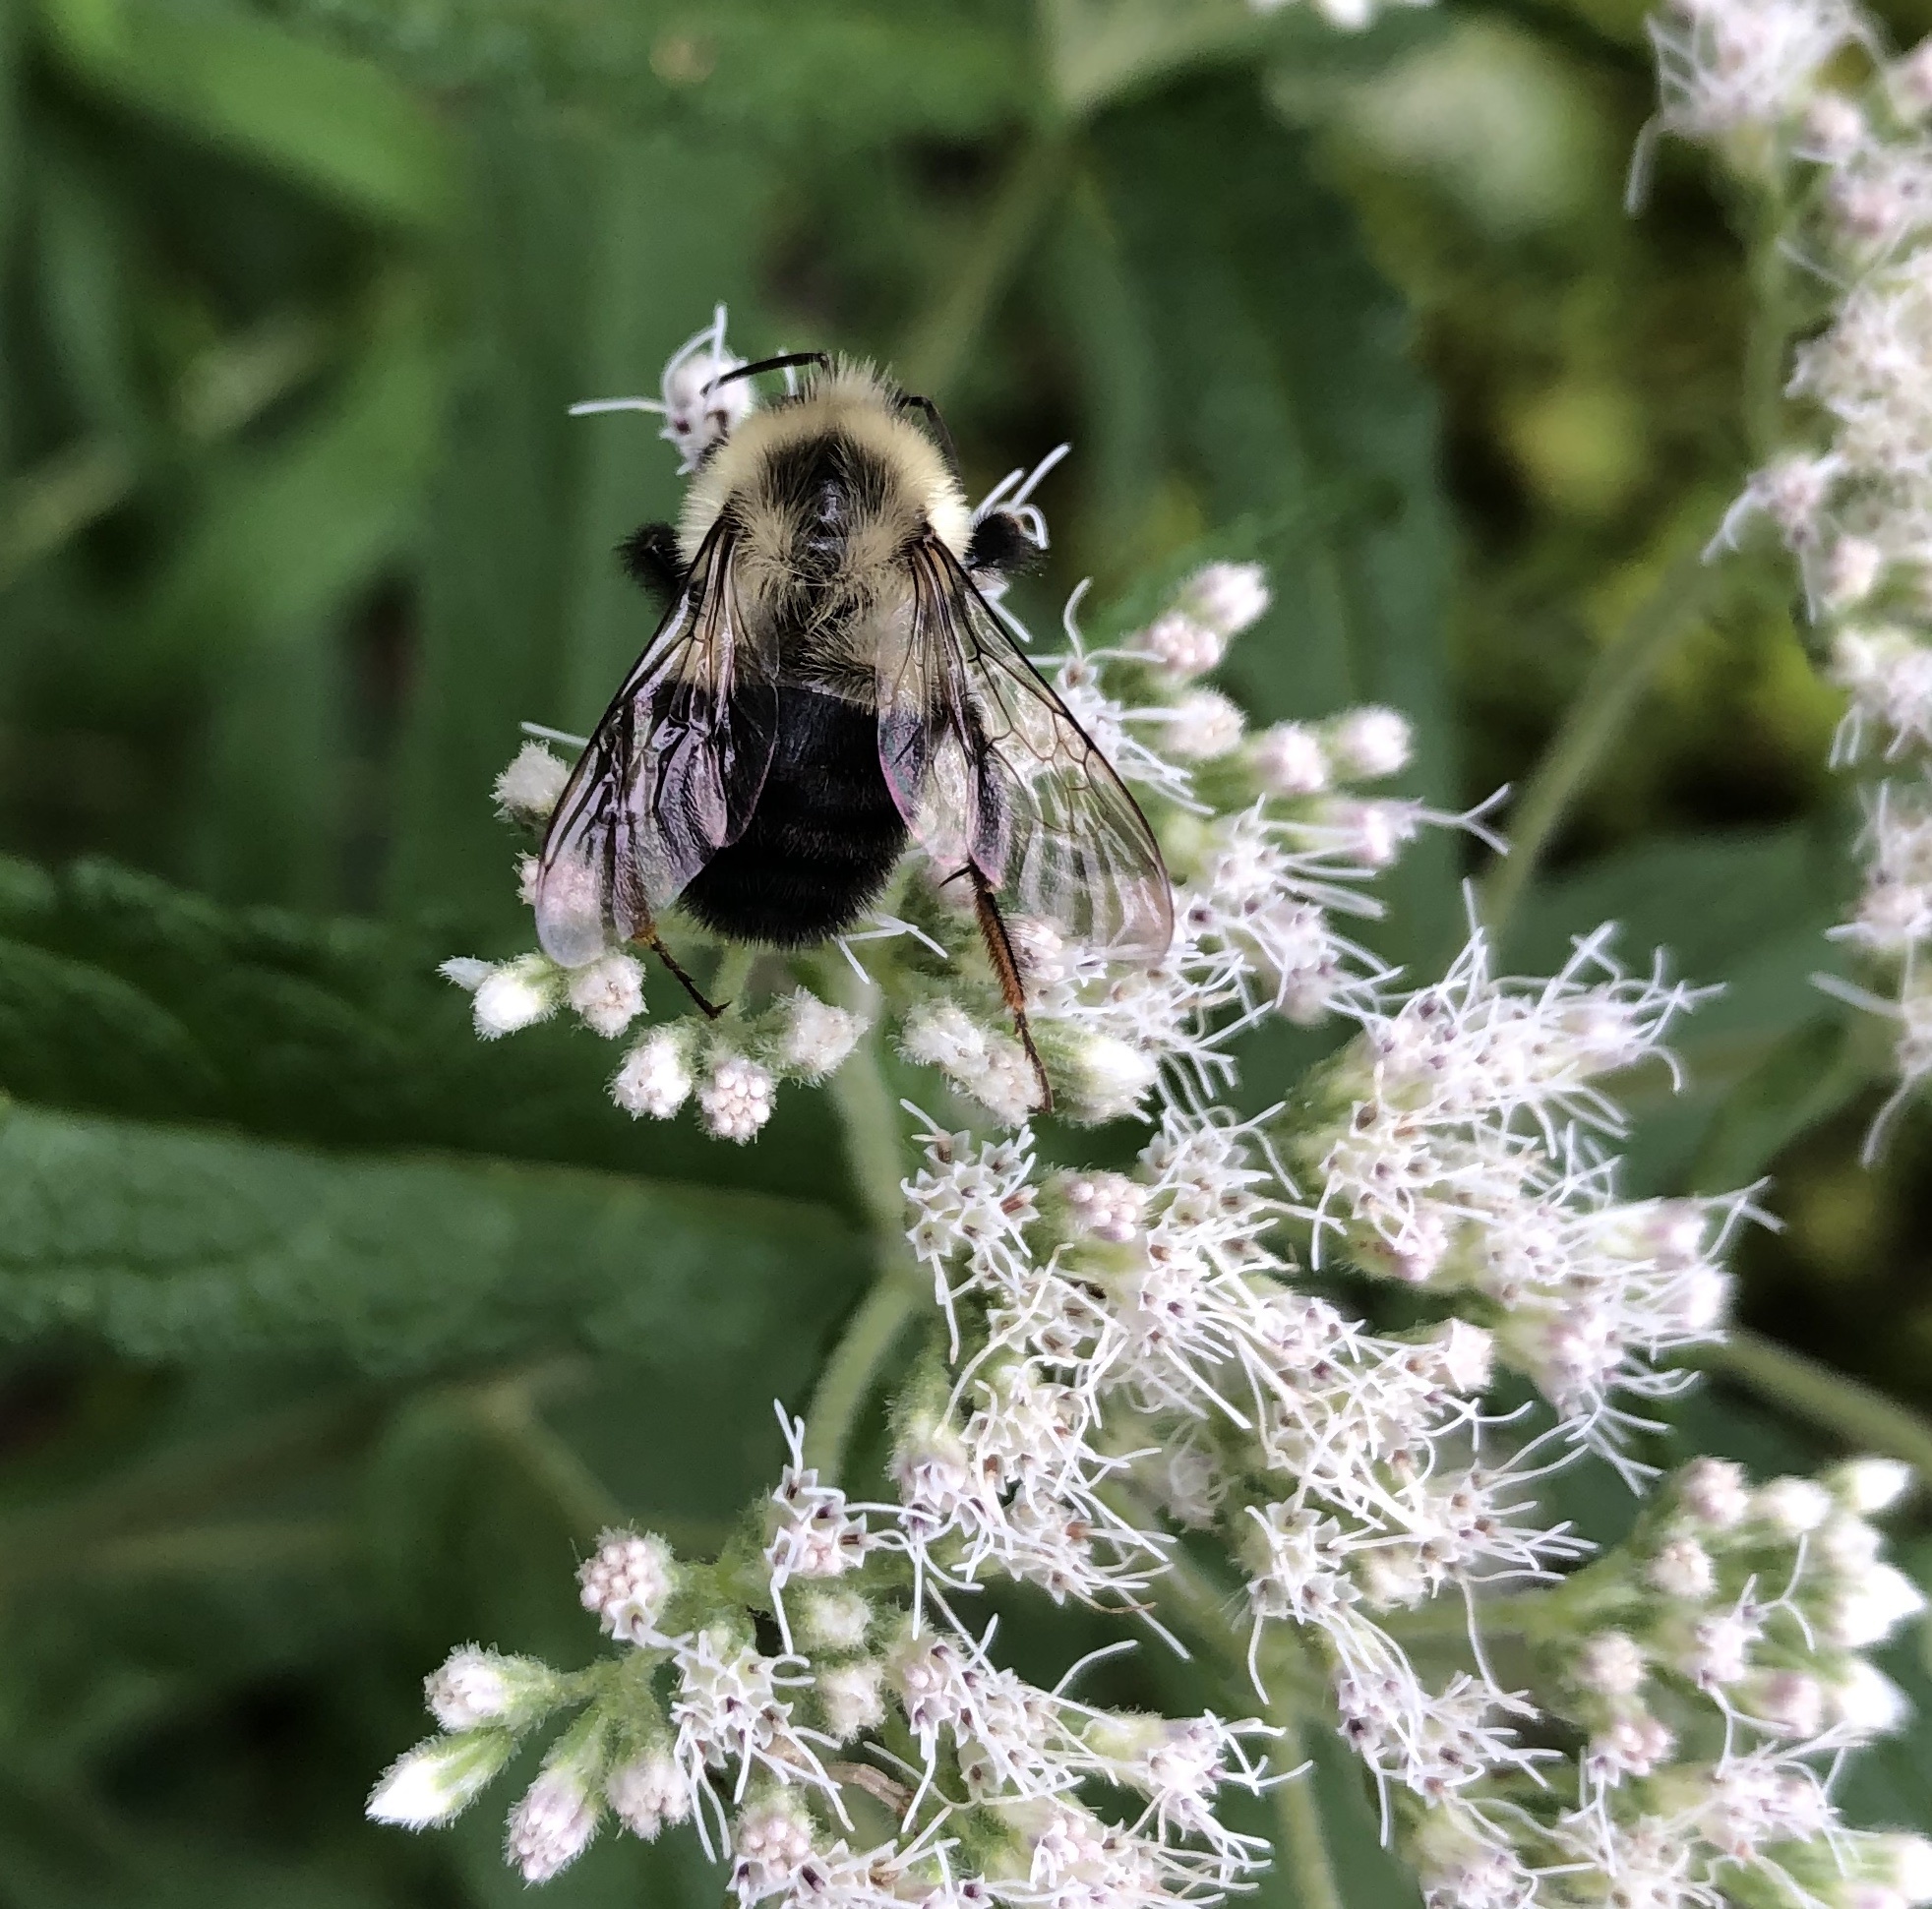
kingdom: Animalia
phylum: Arthropoda
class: Insecta
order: Hymenoptera
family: Apidae
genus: Bombus
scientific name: Bombus impatiens
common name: Common eastern bumble bee
